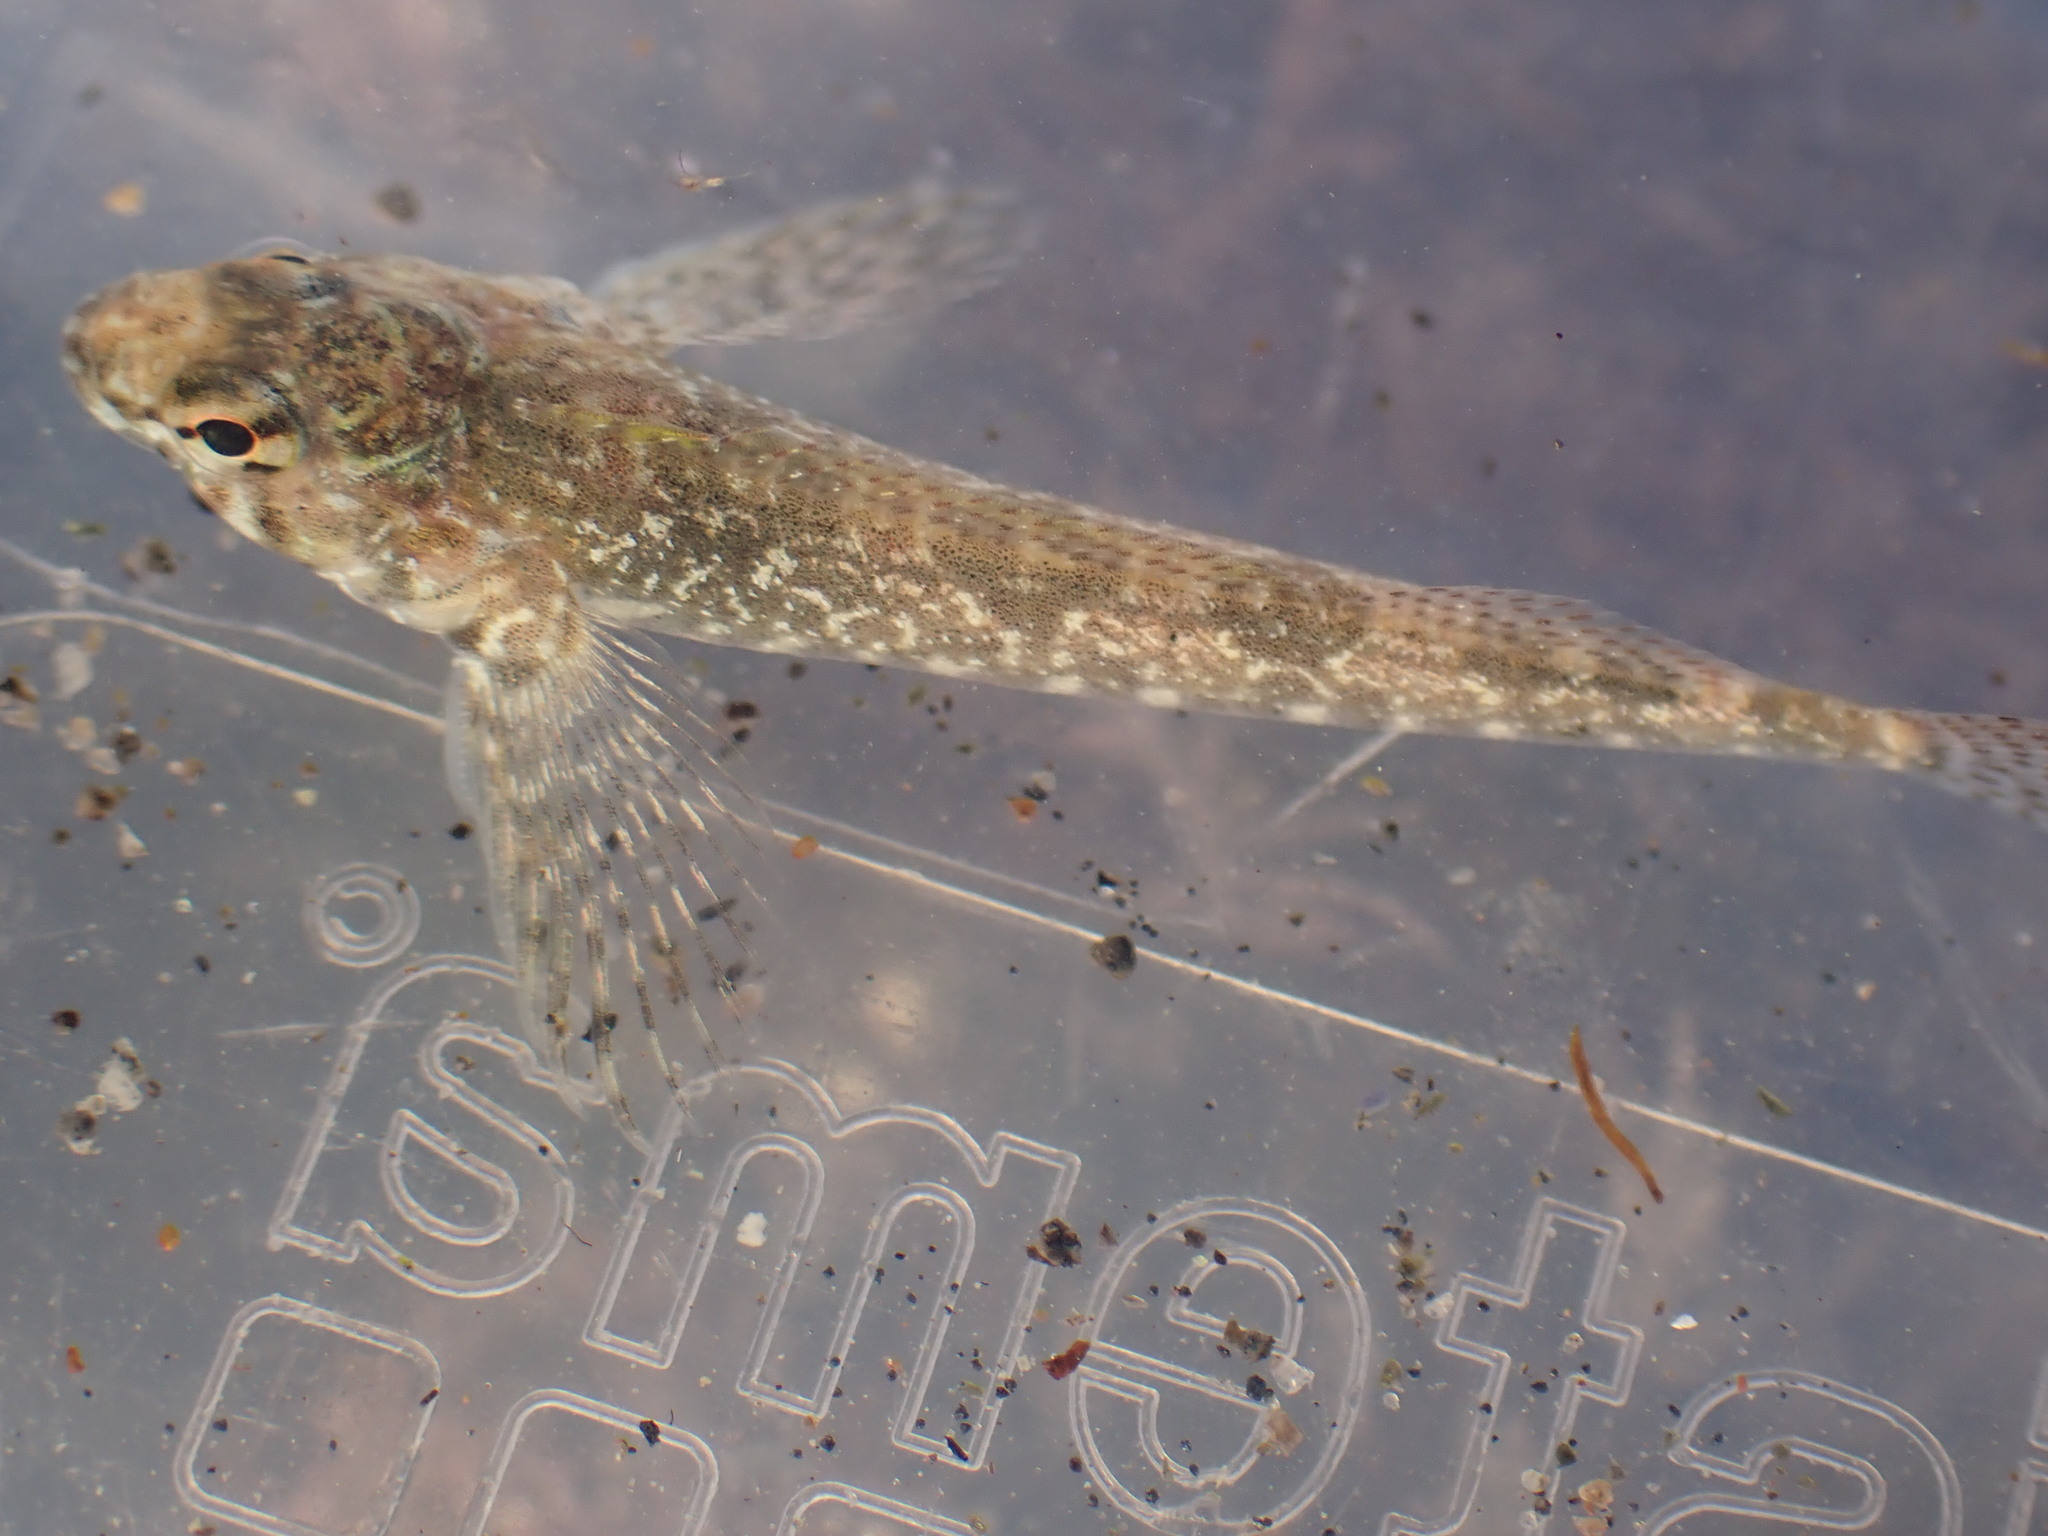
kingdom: Animalia
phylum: Chordata
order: Perciformes
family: Tripterygiidae
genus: Bellapiscis
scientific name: Bellapiscis medius
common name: Twister
